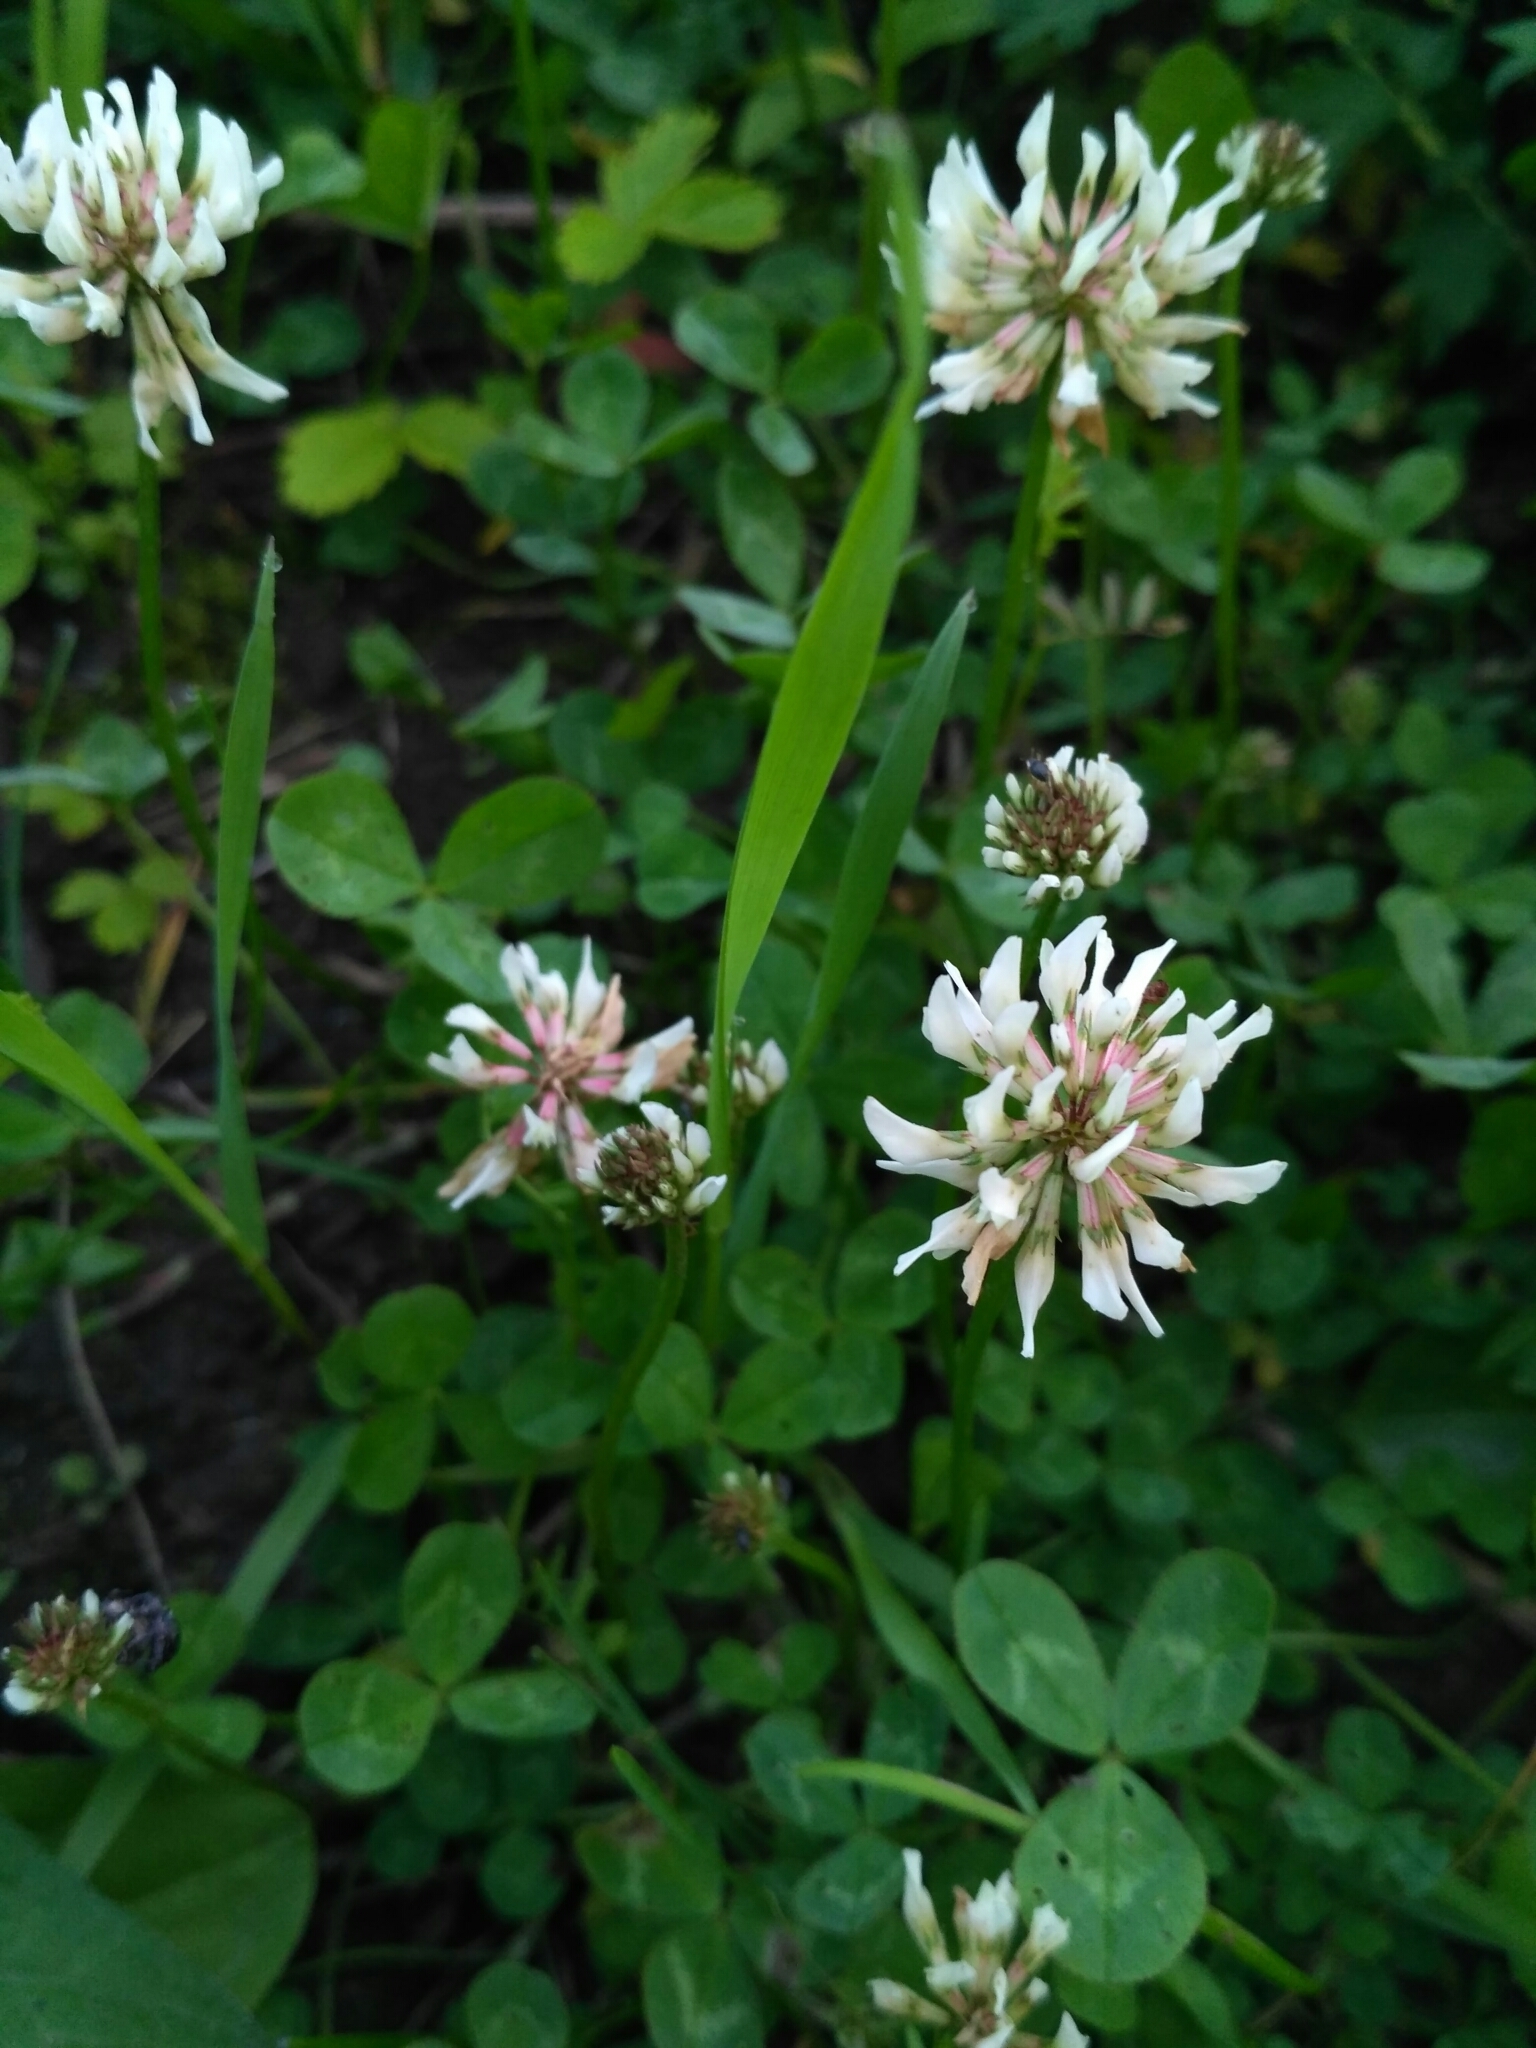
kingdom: Plantae
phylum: Tracheophyta
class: Magnoliopsida
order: Fabales
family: Fabaceae
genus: Trifolium
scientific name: Trifolium repens
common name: White clover
